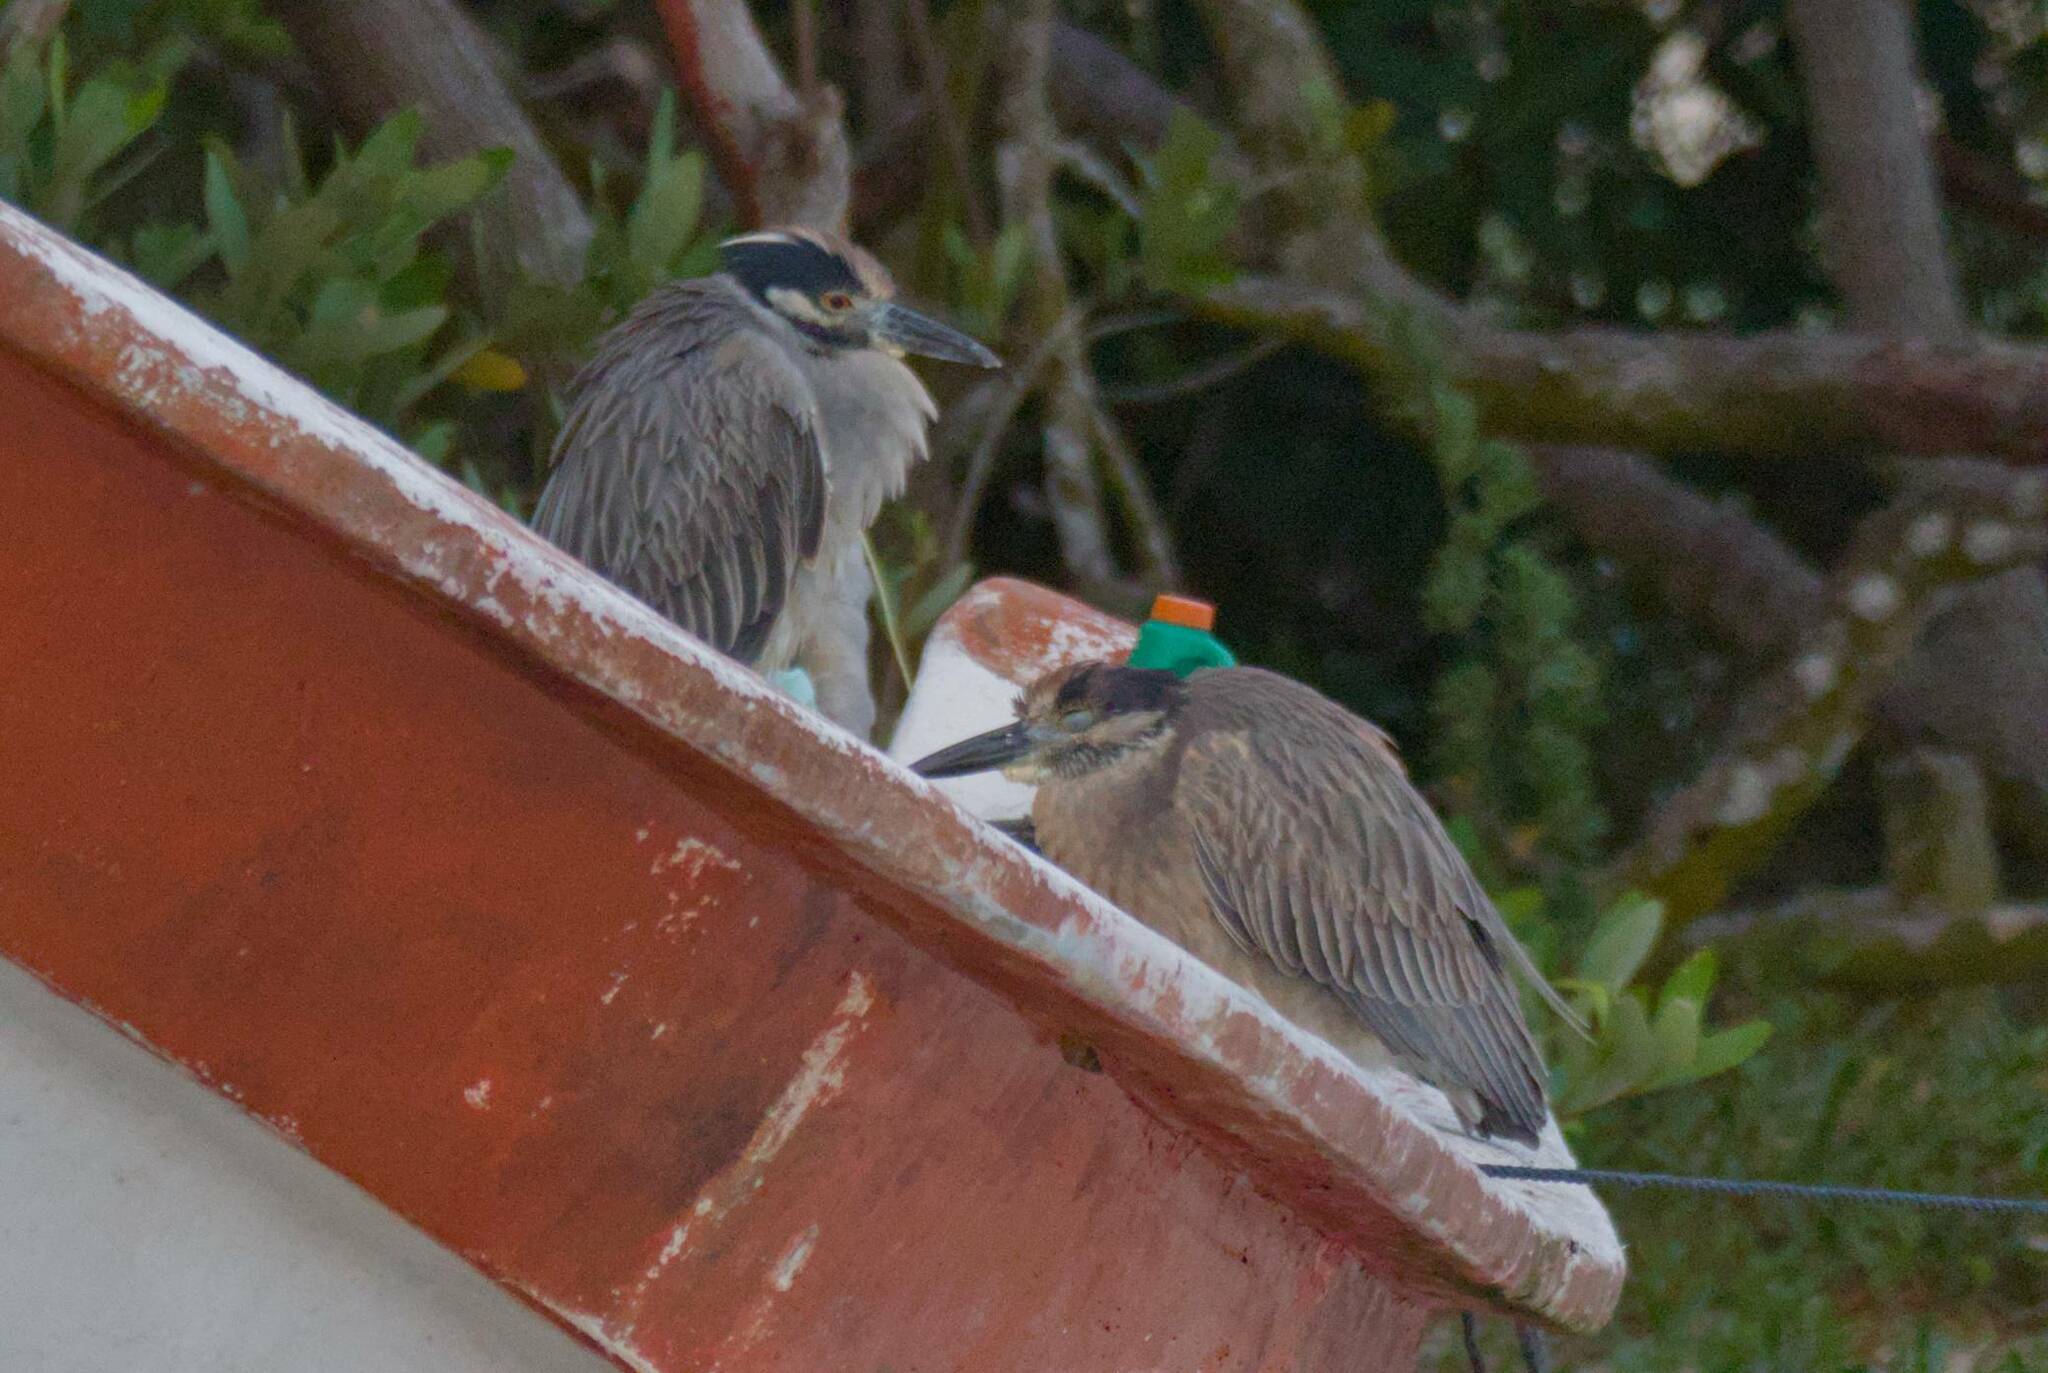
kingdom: Animalia
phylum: Chordata
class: Aves
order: Pelecaniformes
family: Ardeidae
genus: Nyctanassa
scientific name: Nyctanassa violacea
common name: Yellow-crowned night heron
